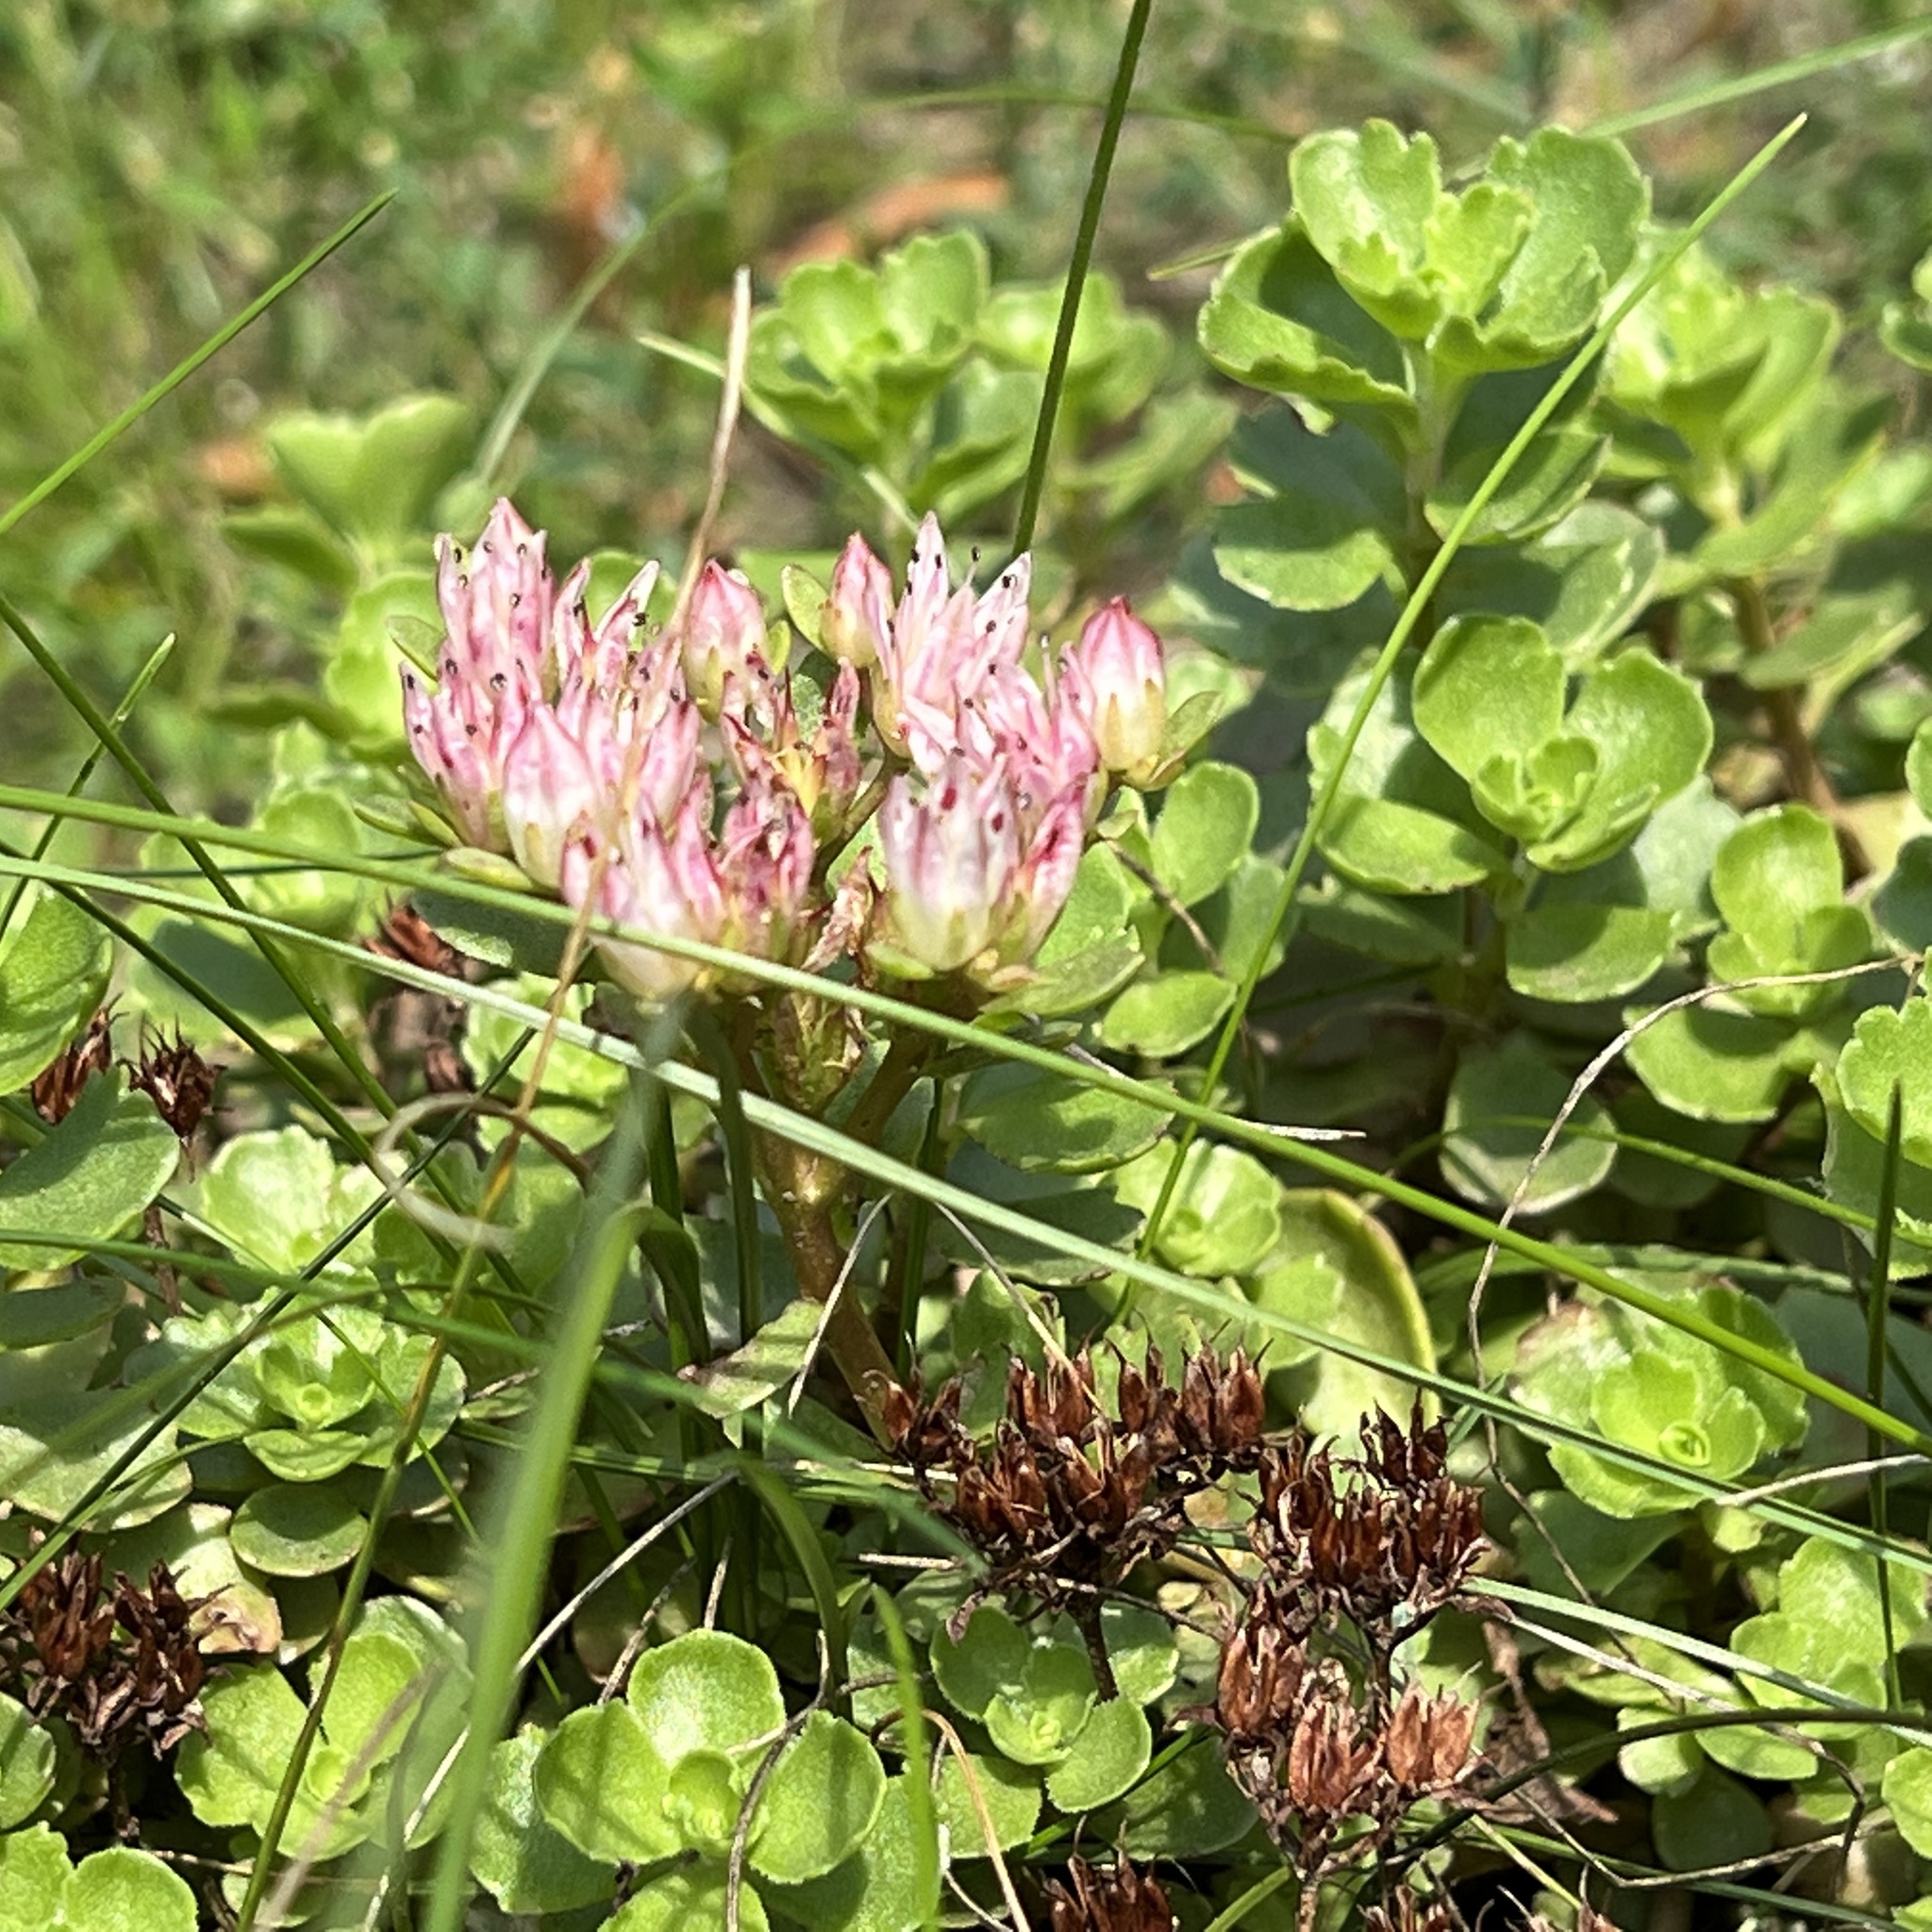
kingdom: Plantae
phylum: Tracheophyta
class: Magnoliopsida
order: Saxifragales
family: Crassulaceae
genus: Phedimus
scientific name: Phedimus spurius
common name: Caucasian stonecrop
